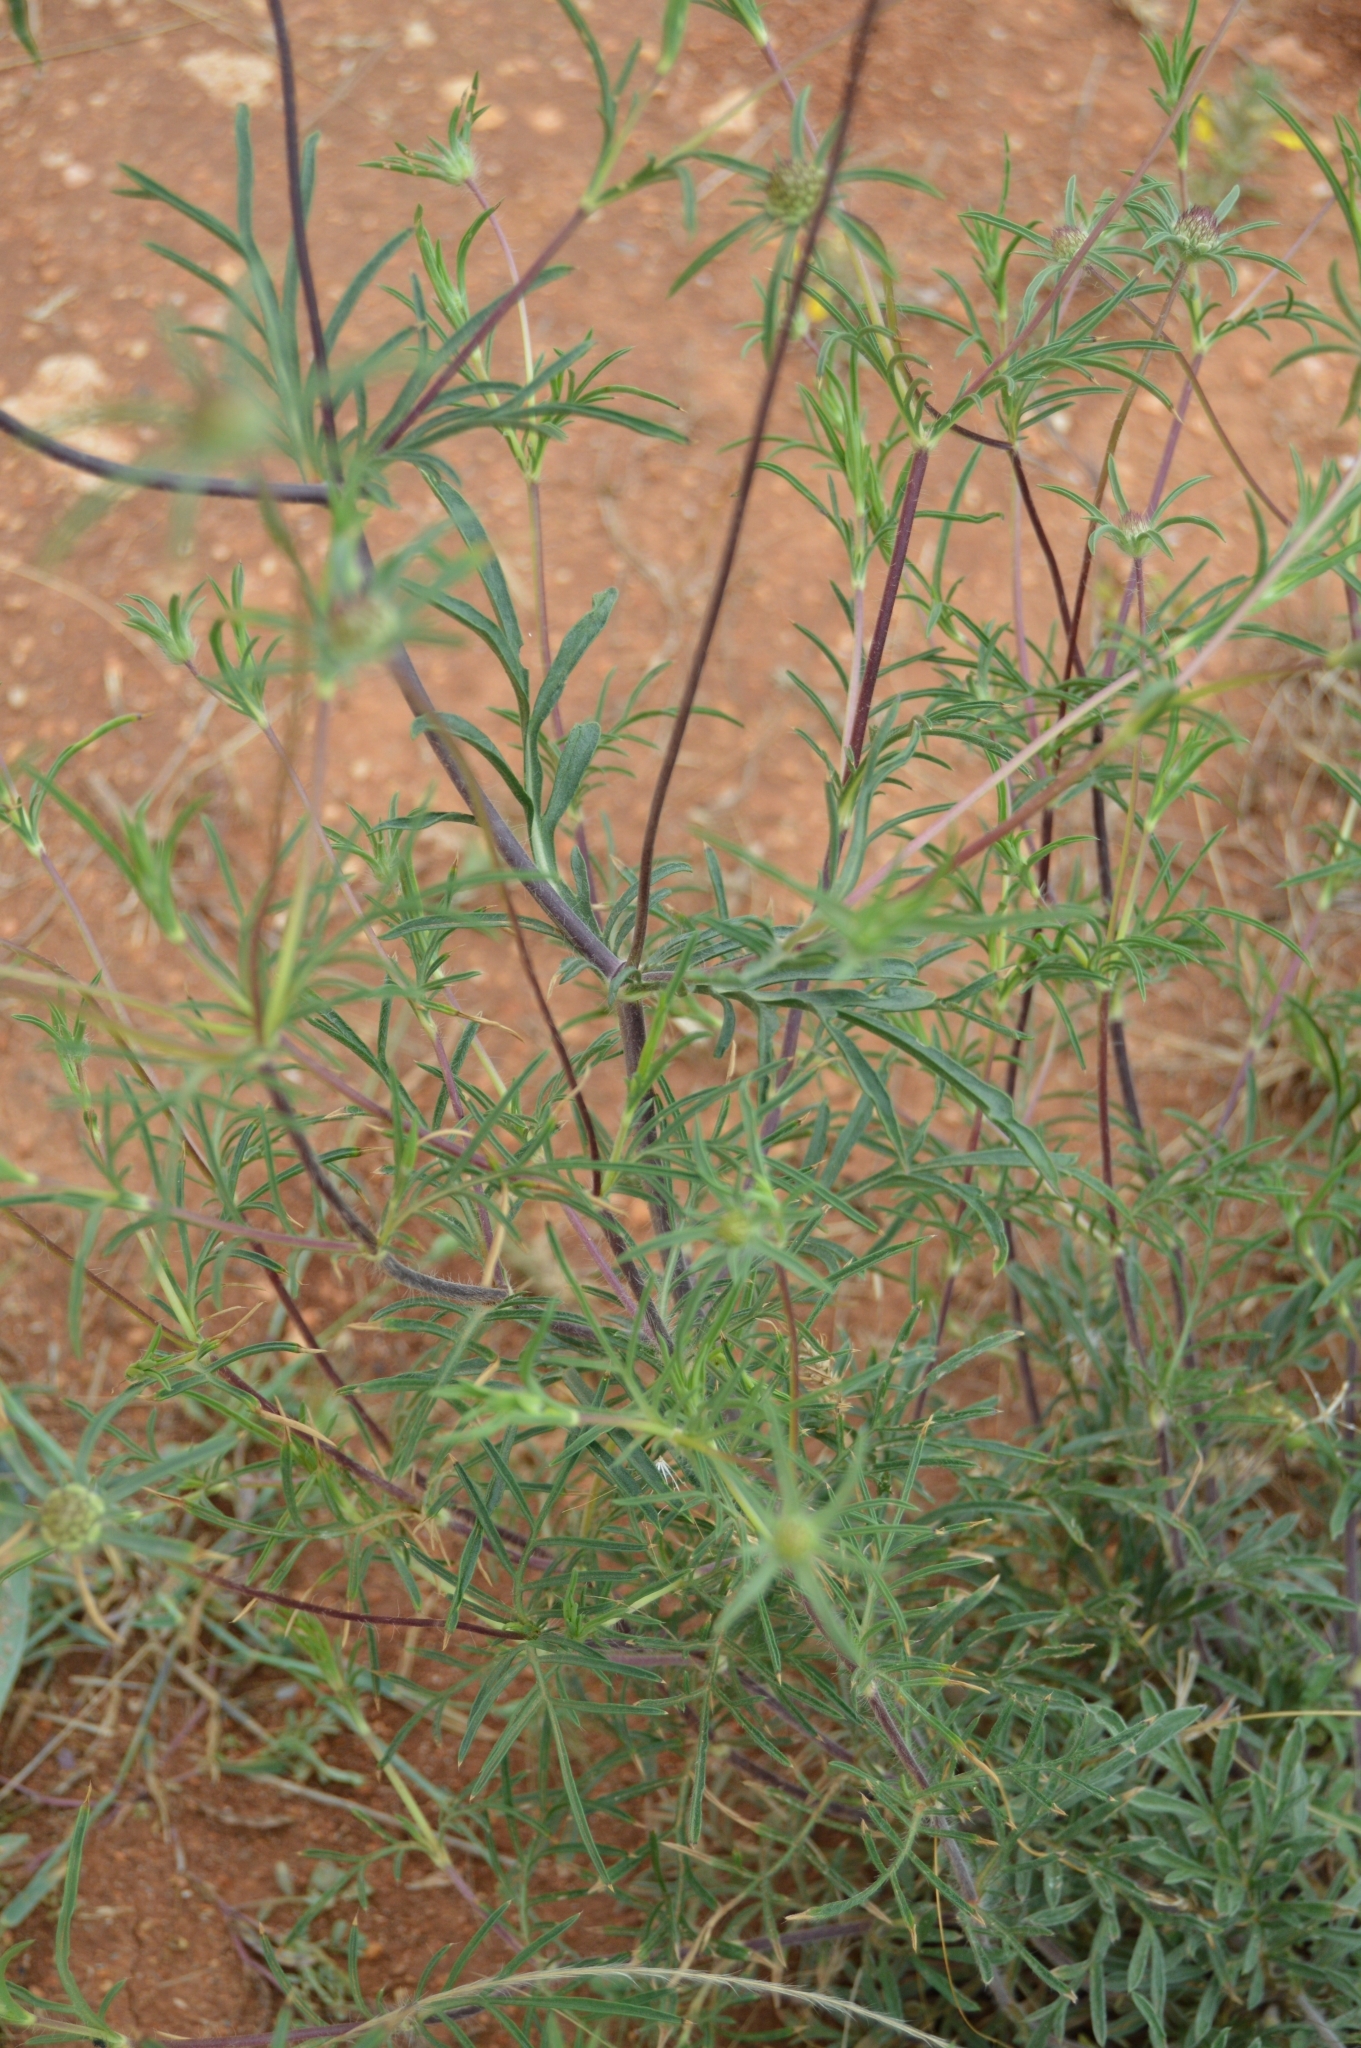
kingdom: Plantae
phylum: Tracheophyta
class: Magnoliopsida
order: Dipsacales
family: Caprifoliaceae
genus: Lomelosia
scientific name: Lomelosia argentea
